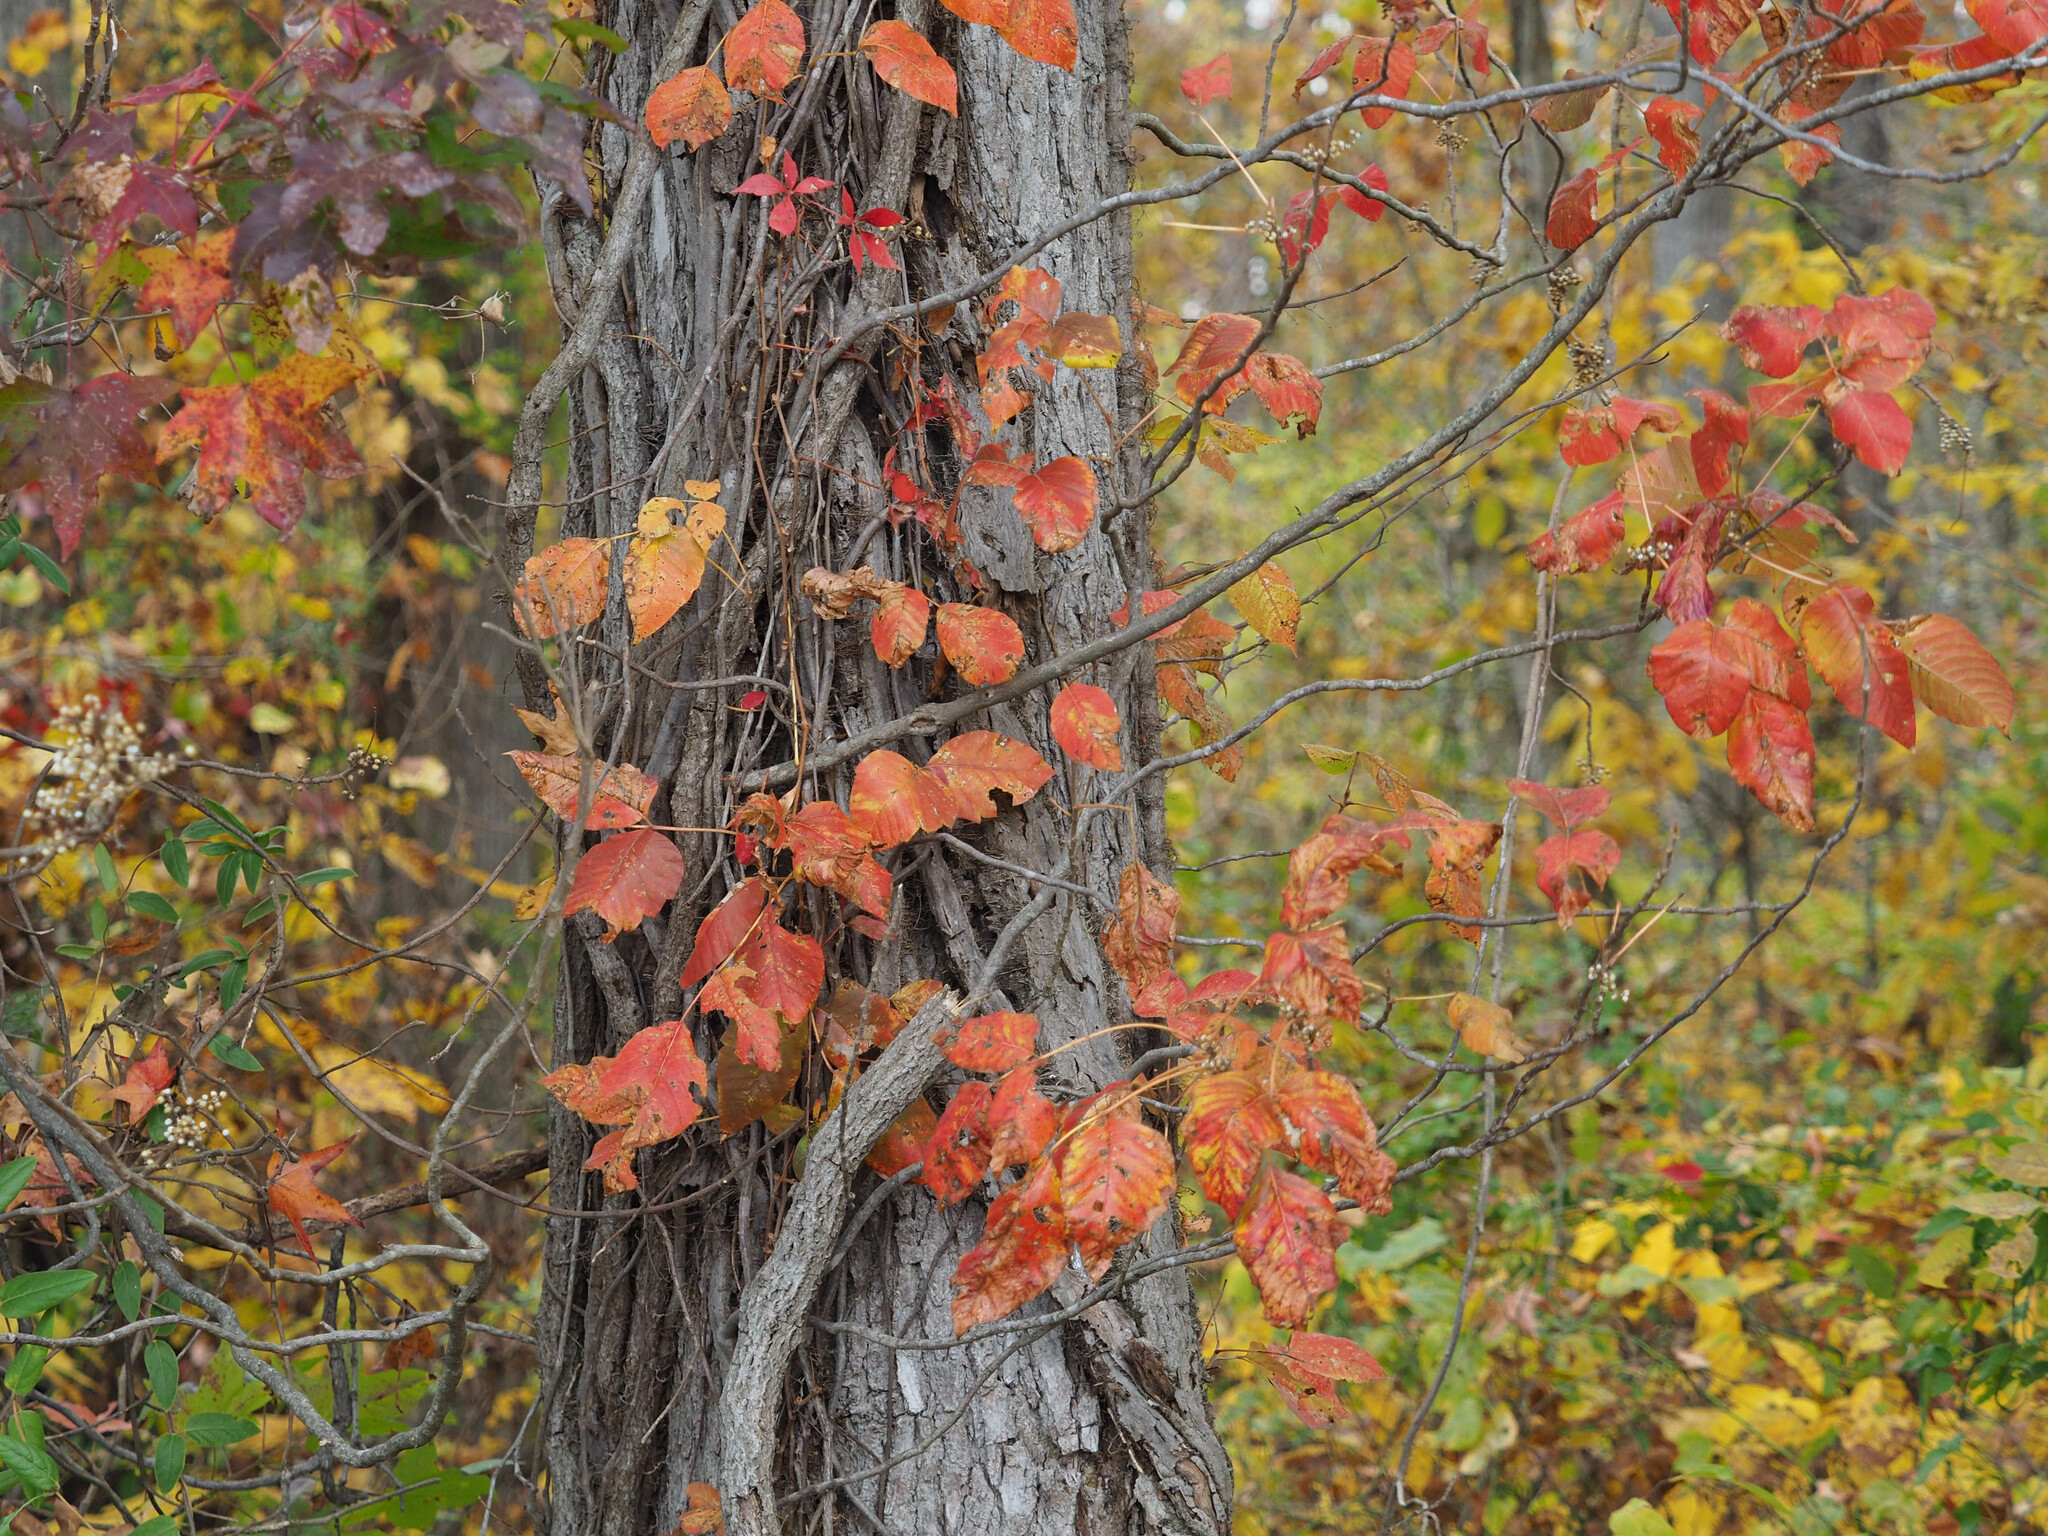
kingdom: Plantae
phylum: Tracheophyta
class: Magnoliopsida
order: Sapindales
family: Anacardiaceae
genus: Toxicodendron
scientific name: Toxicodendron radicans
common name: Poison ivy
